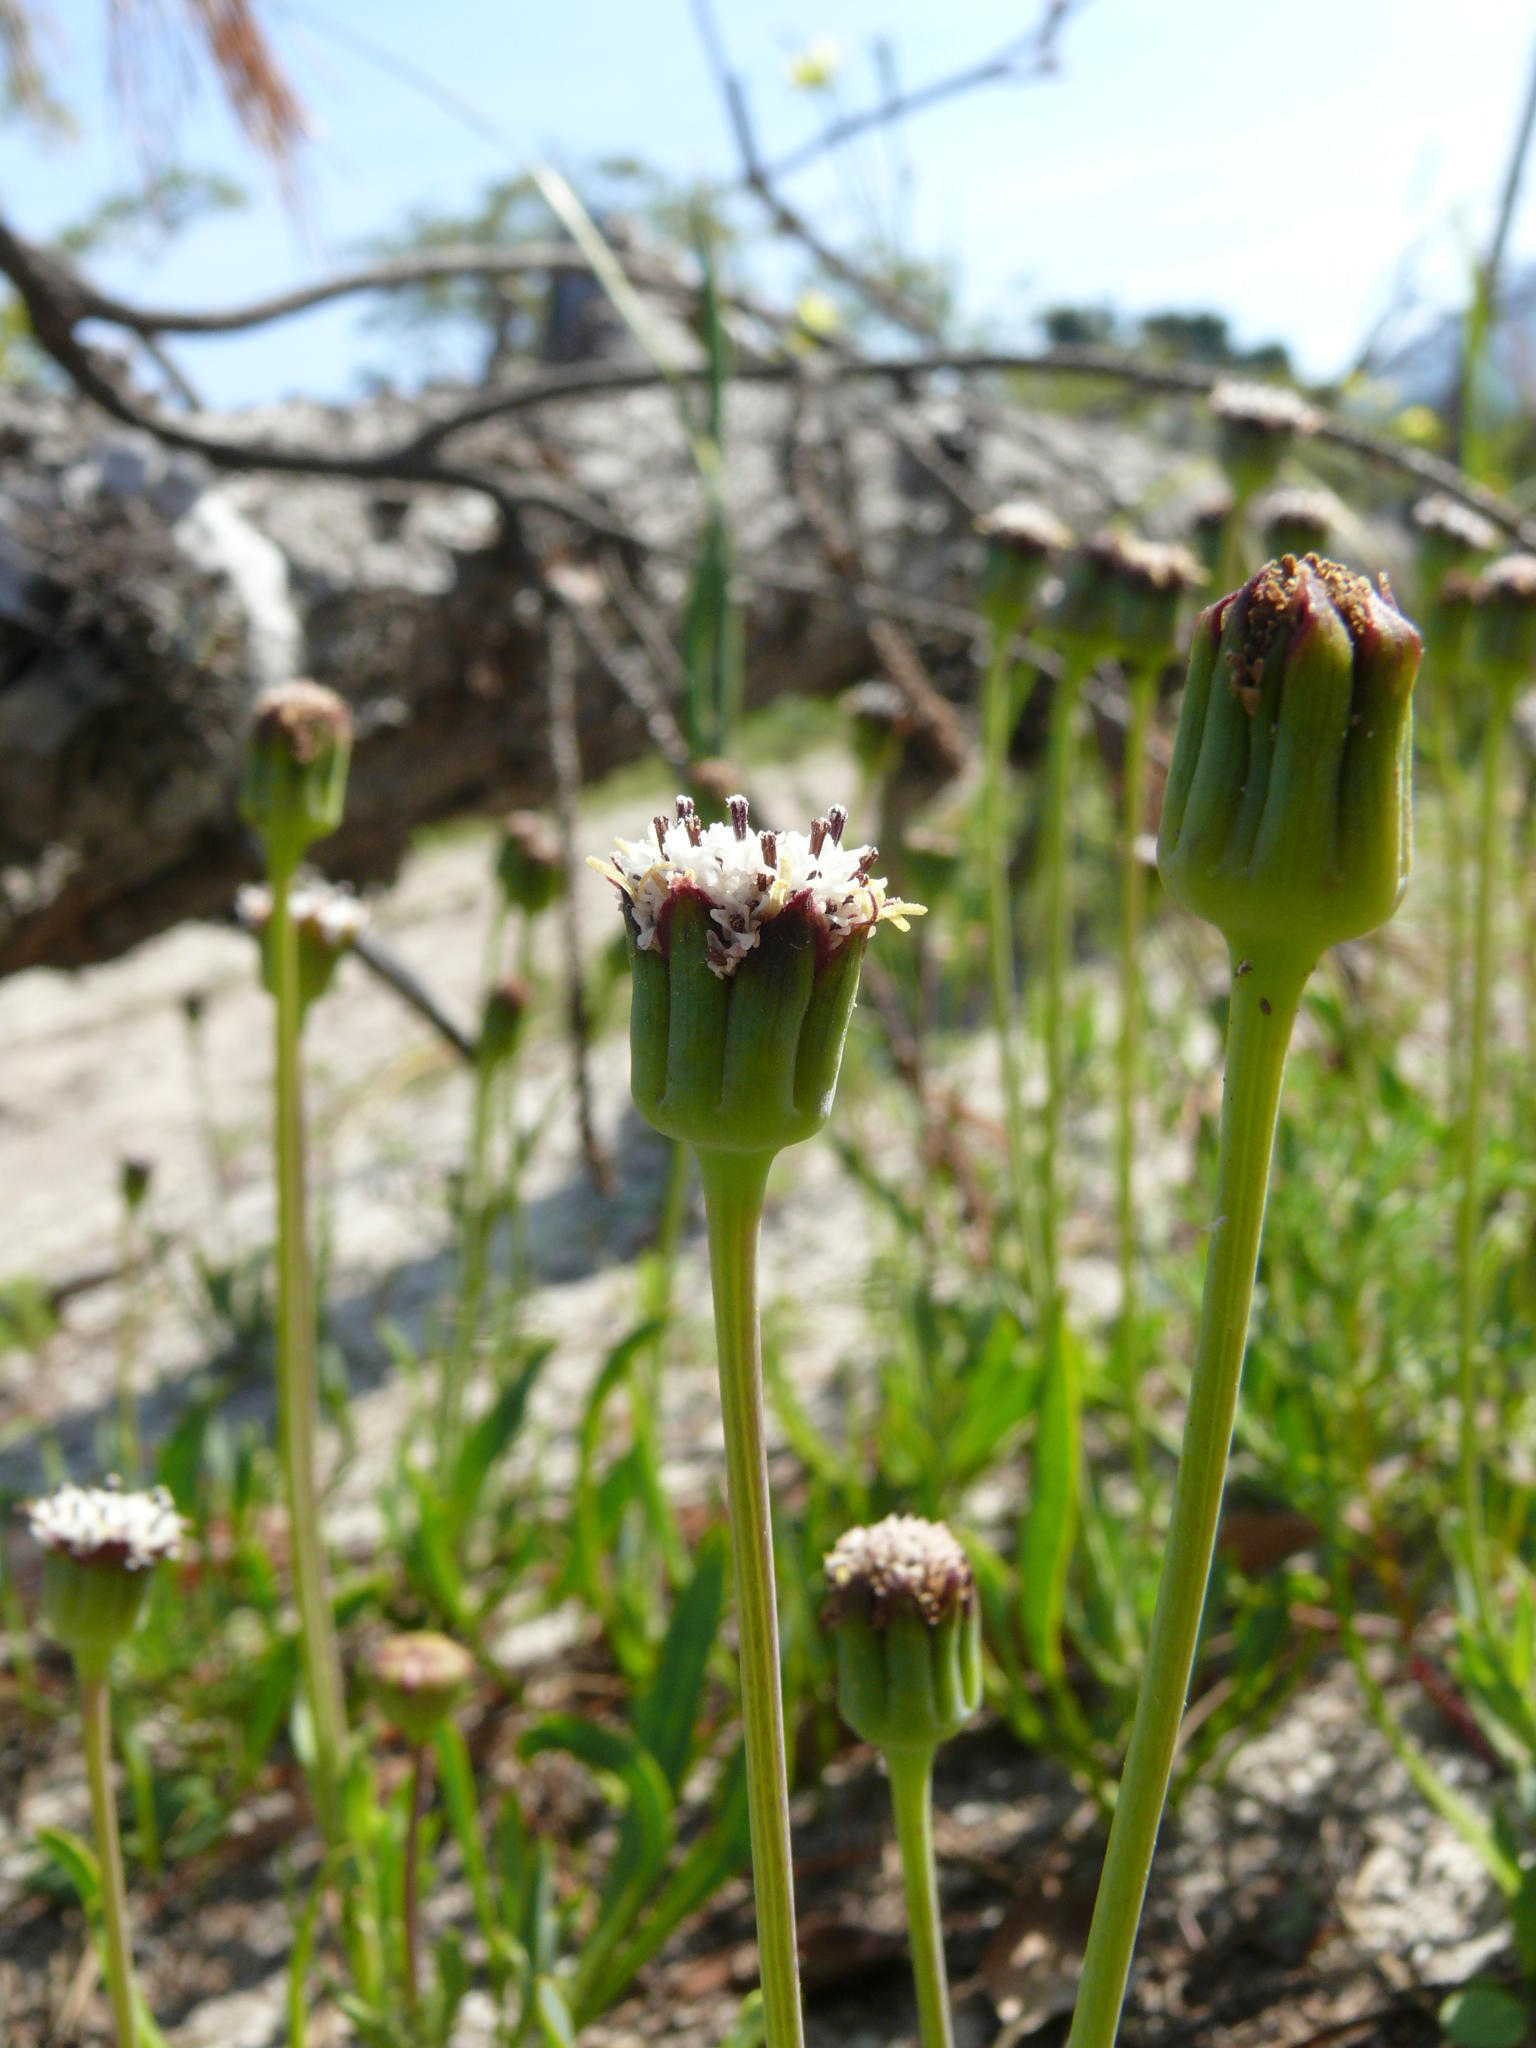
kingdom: Plantae
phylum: Tracheophyta
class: Magnoliopsida
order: Asterales
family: Asteraceae
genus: Othonna
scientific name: Othonna digitata
